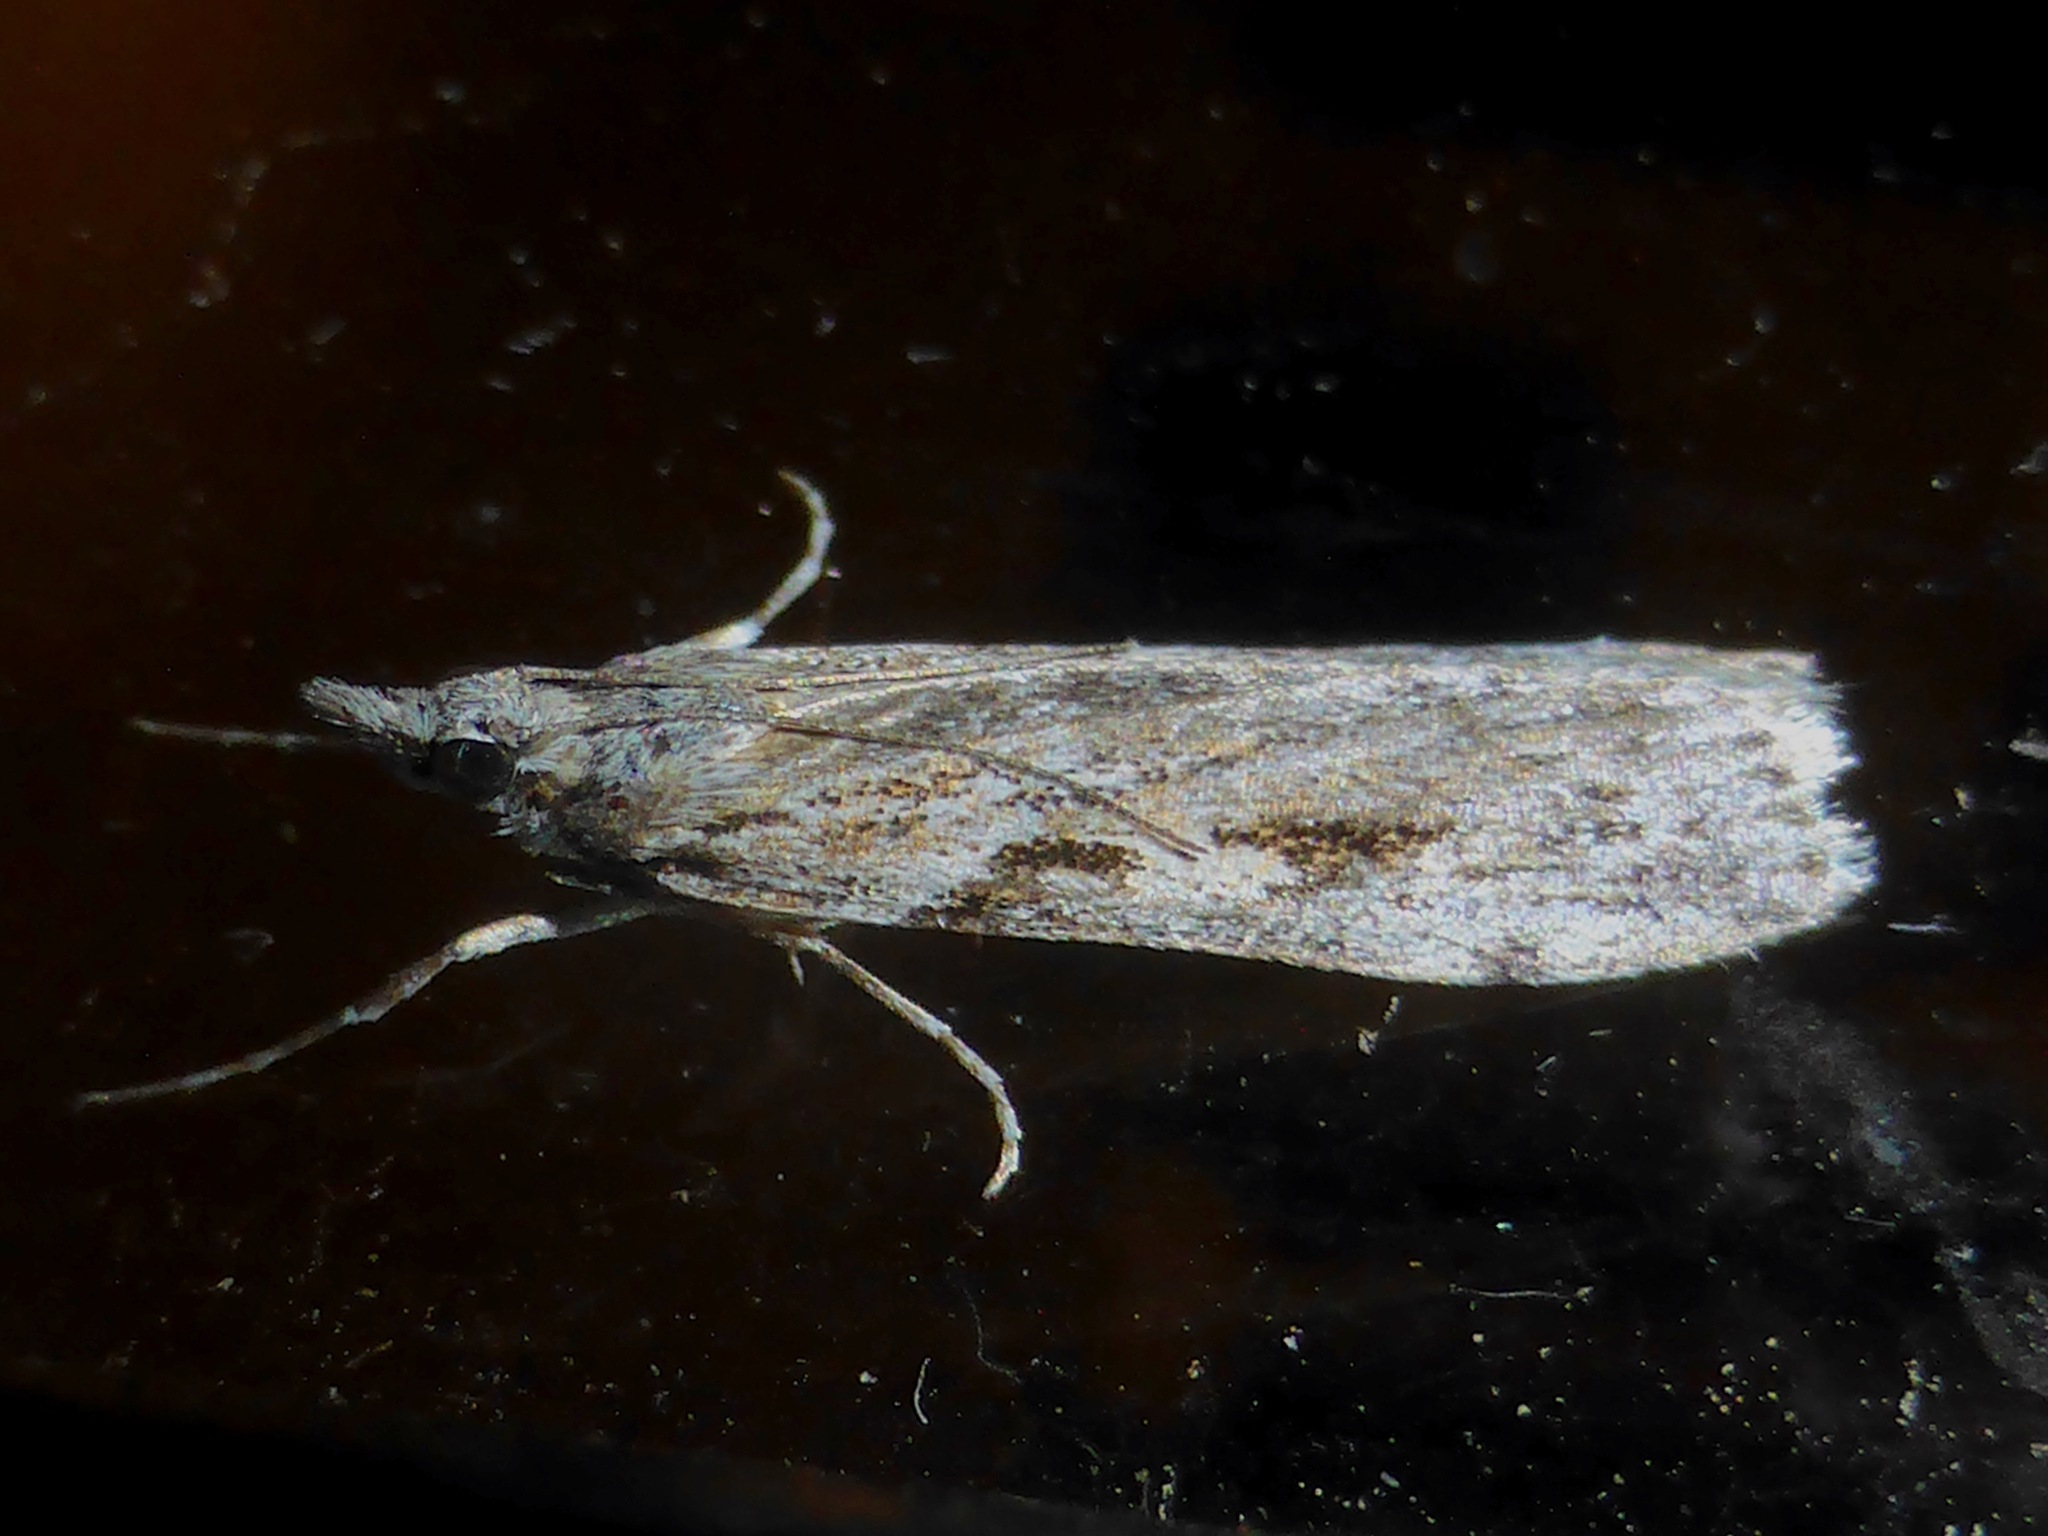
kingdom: Animalia
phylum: Arthropoda
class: Insecta
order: Lepidoptera
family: Crambidae
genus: Scoparia
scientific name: Scoparia halopis
